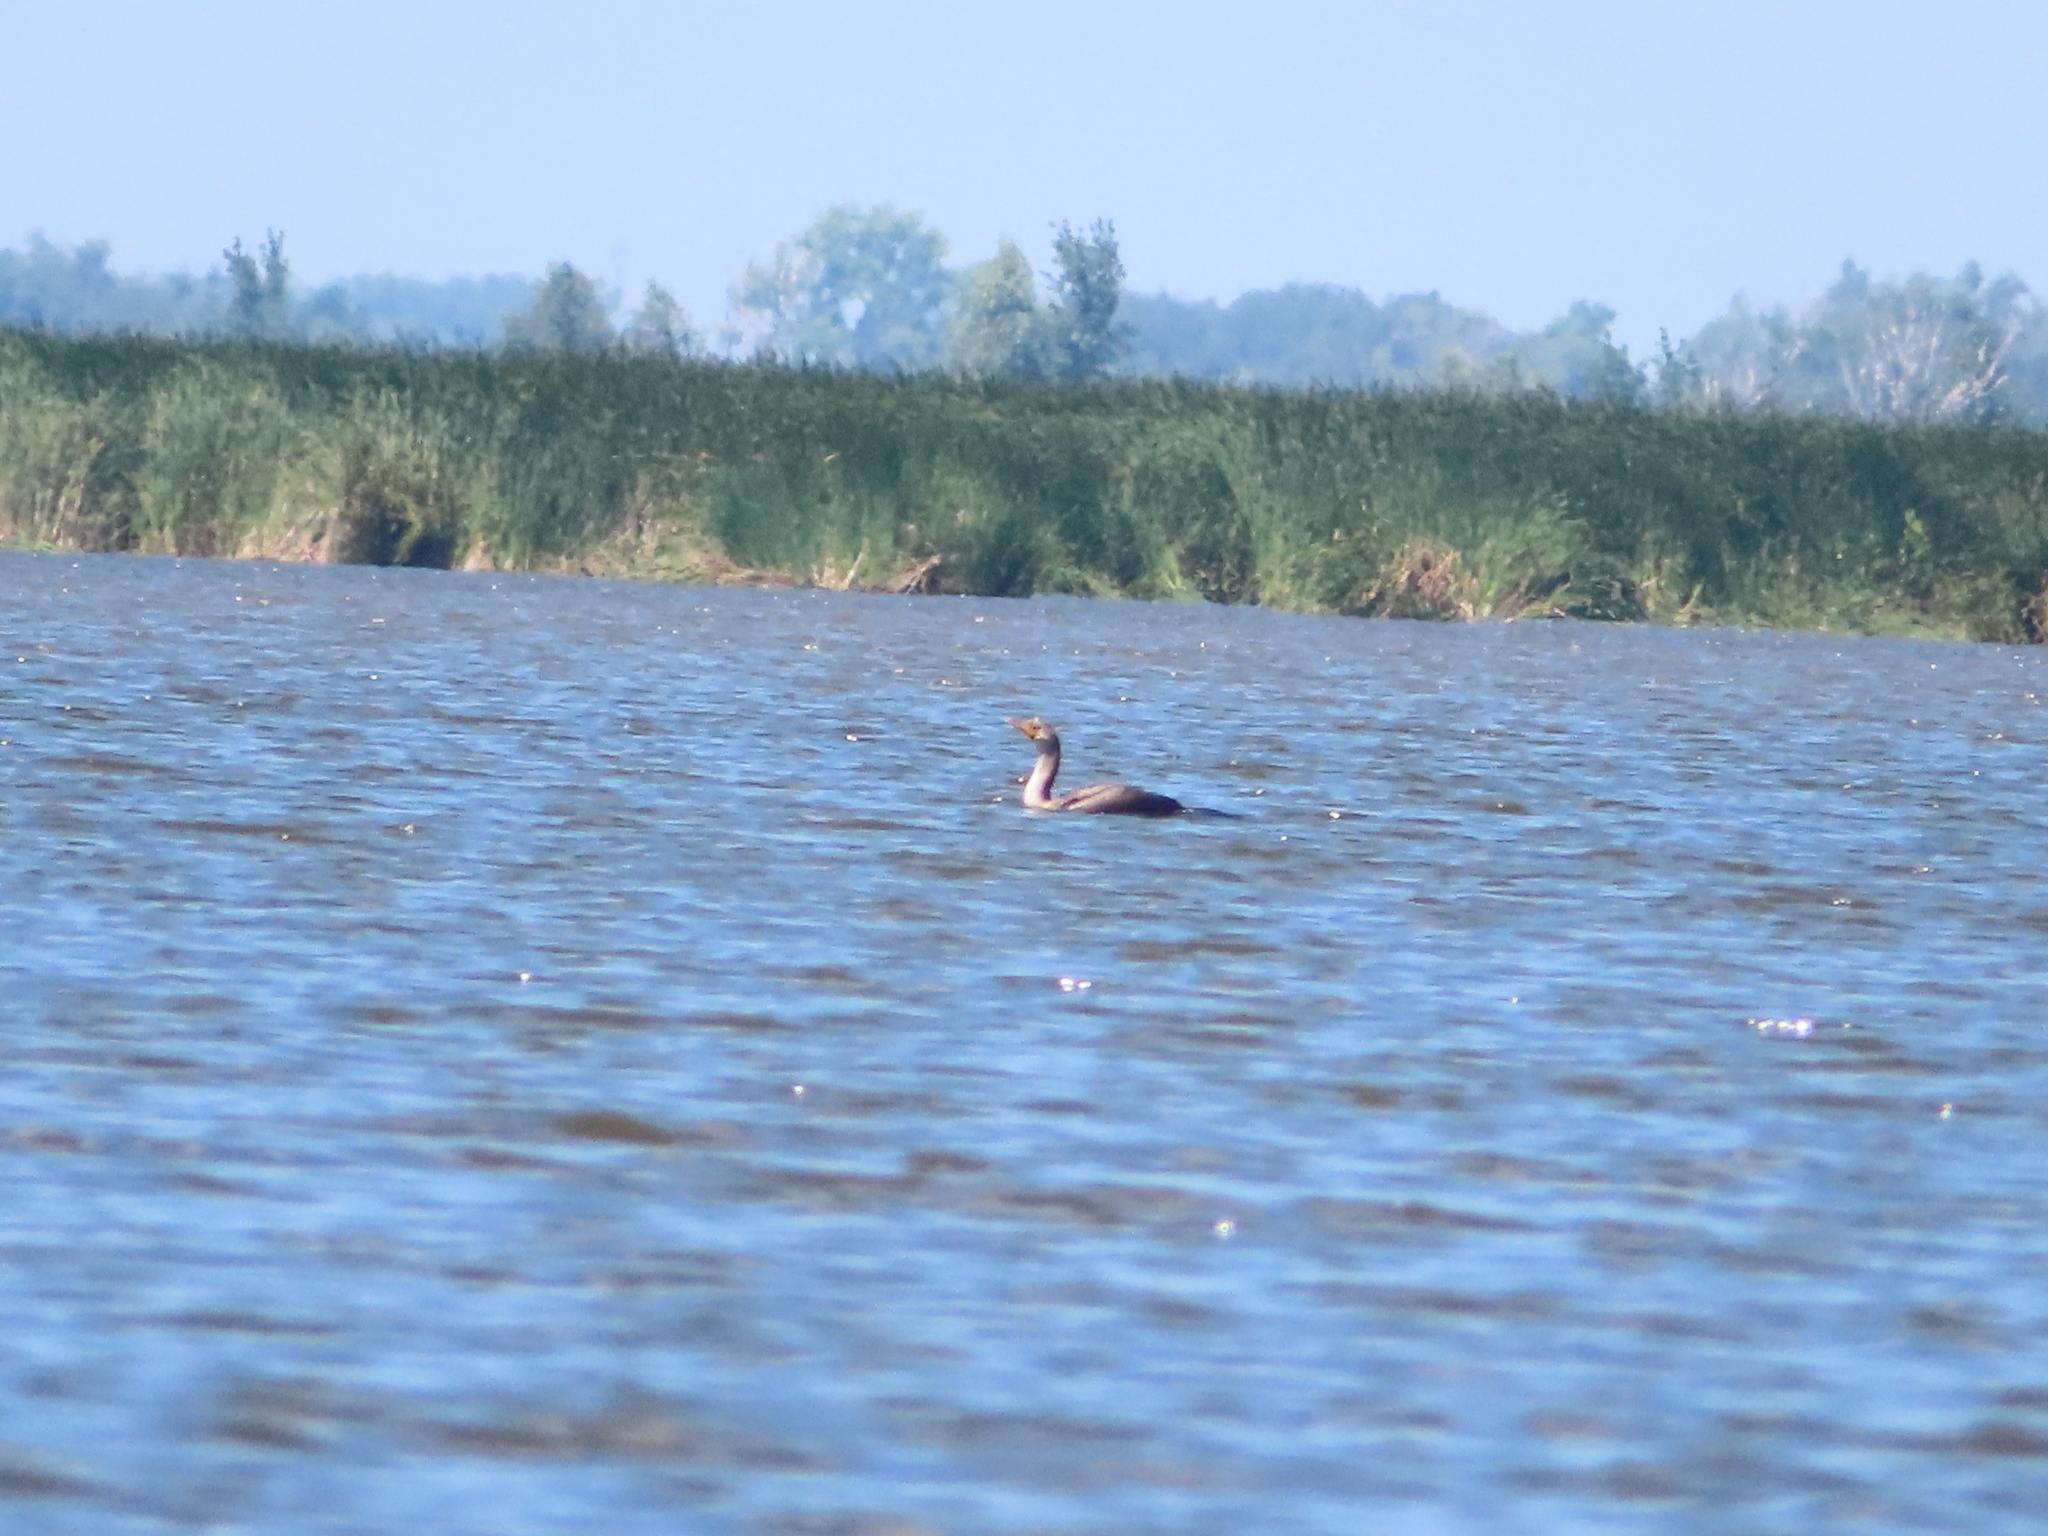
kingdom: Animalia
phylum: Chordata
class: Aves
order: Suliformes
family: Phalacrocoracidae
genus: Phalacrocorax
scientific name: Phalacrocorax auritus
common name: Double-crested cormorant
